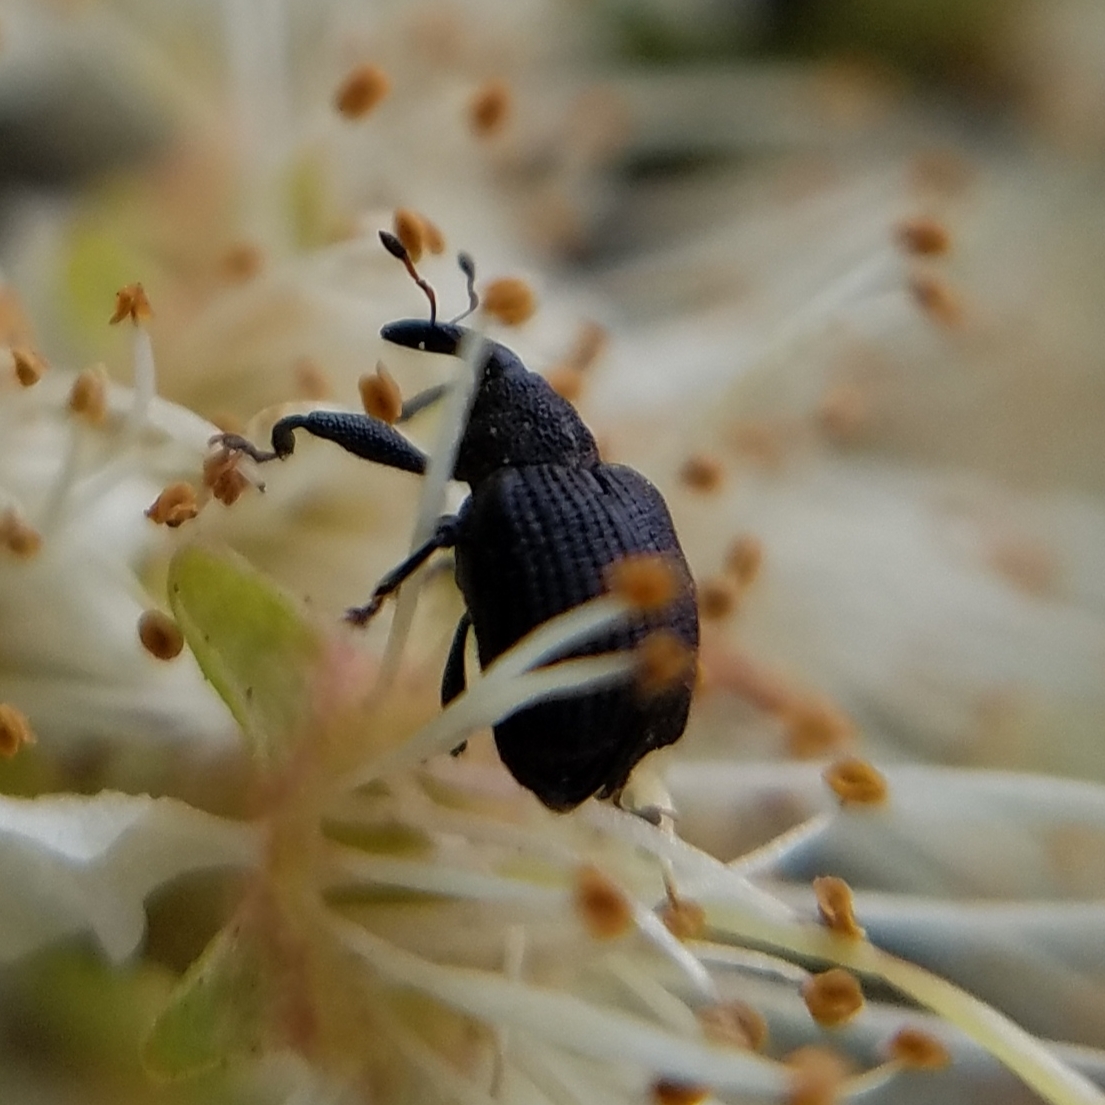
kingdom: Animalia
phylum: Arthropoda
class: Insecta
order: Coleoptera
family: Curculionidae
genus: Odontopus
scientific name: Odontopus calceatus
